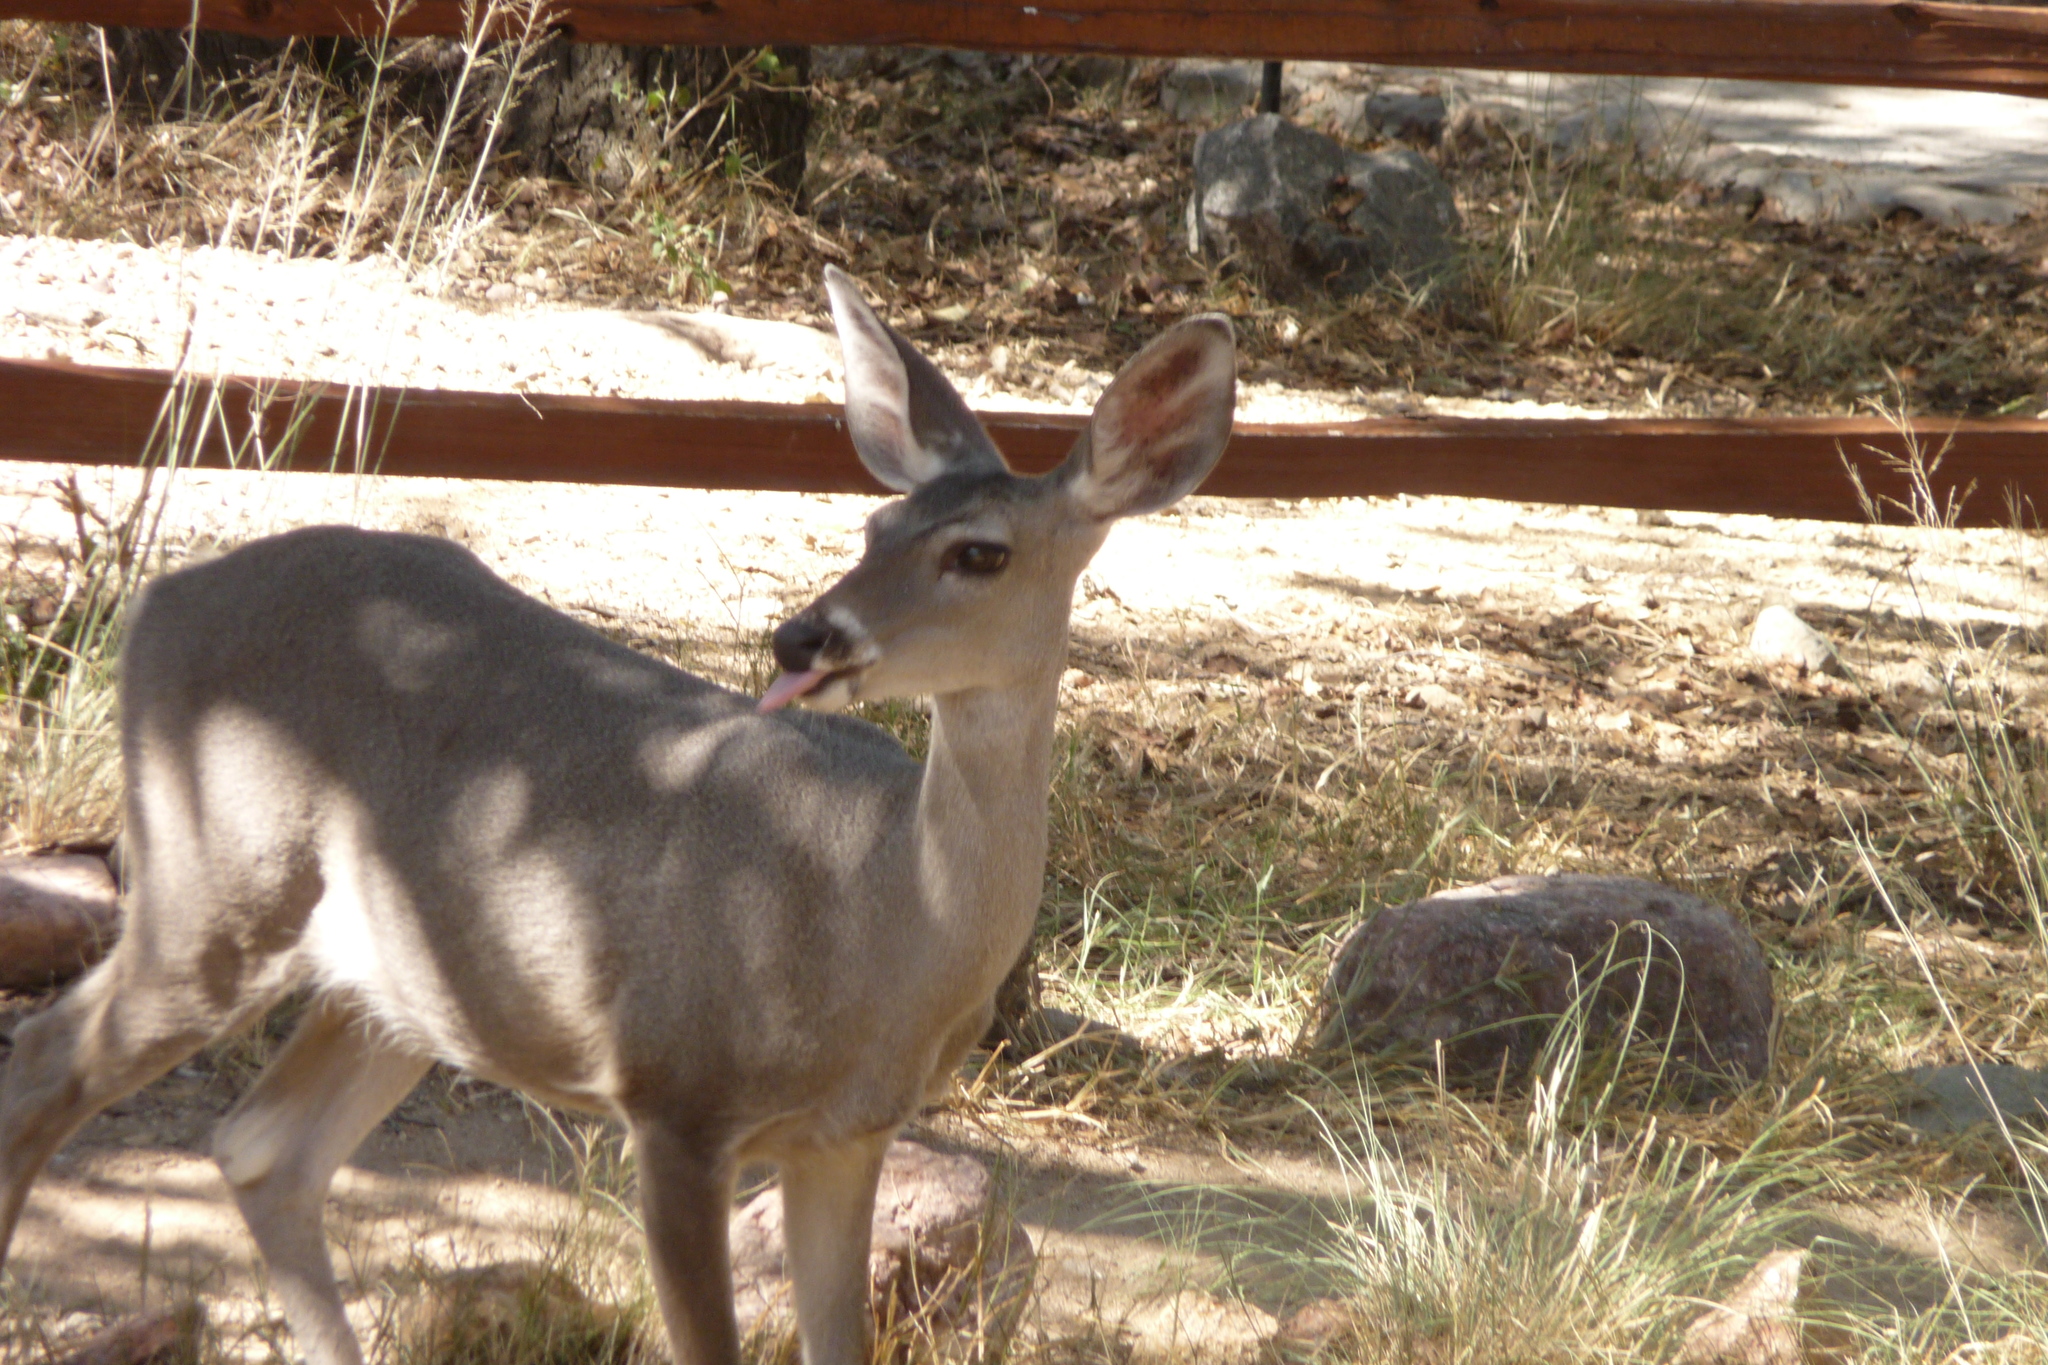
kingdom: Animalia
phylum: Chordata
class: Mammalia
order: Artiodactyla
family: Cervidae
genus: Odocoileus
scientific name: Odocoileus virginianus
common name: White-tailed deer
